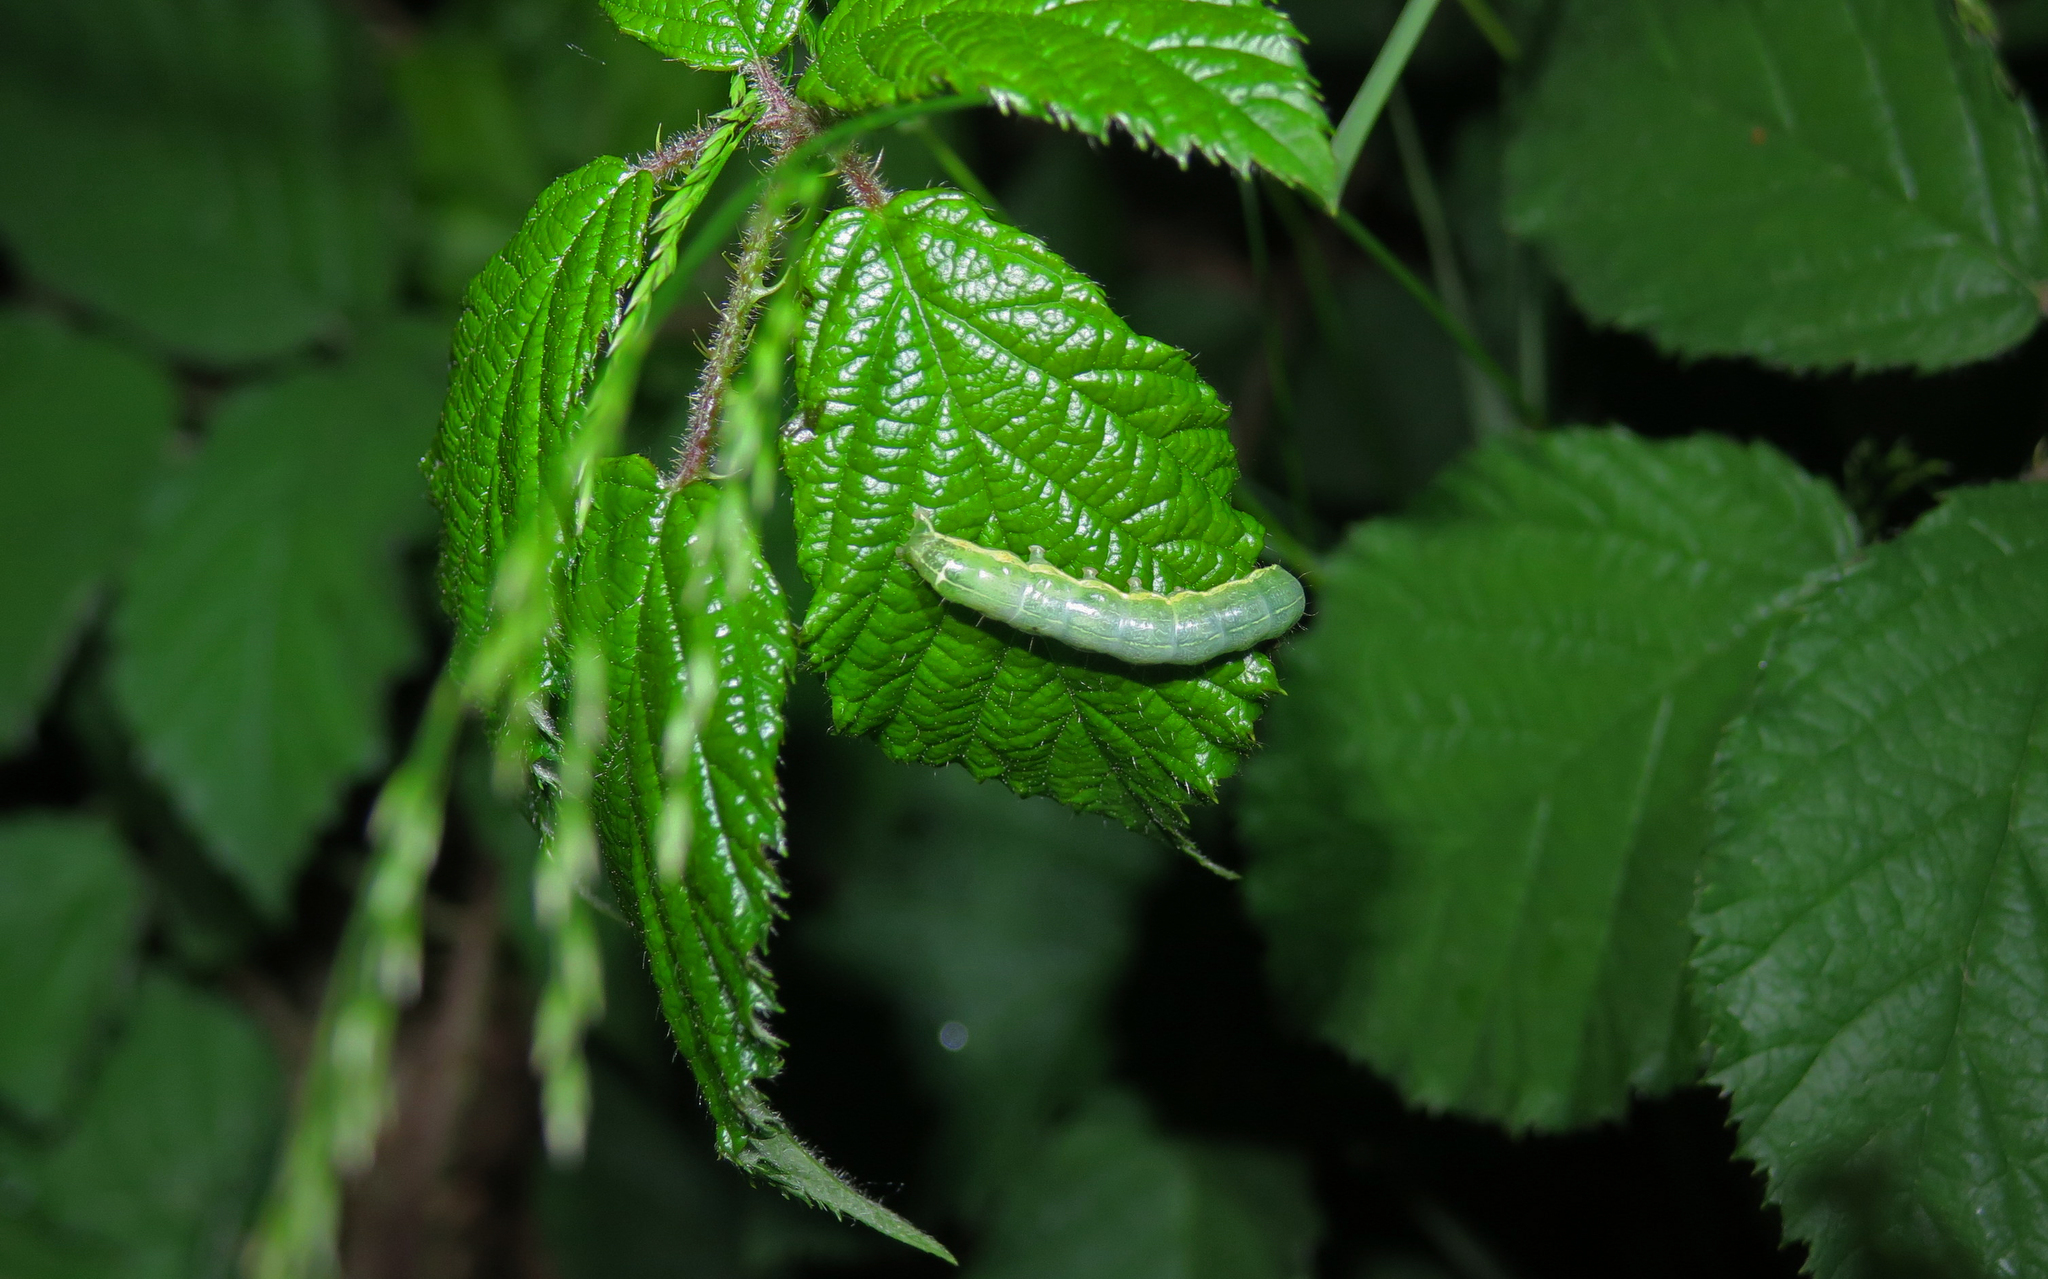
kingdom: Animalia
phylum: Arthropoda
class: Insecta
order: Lepidoptera
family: Noctuidae
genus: Orthosia
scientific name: Orthosia cruda
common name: Small quaker
